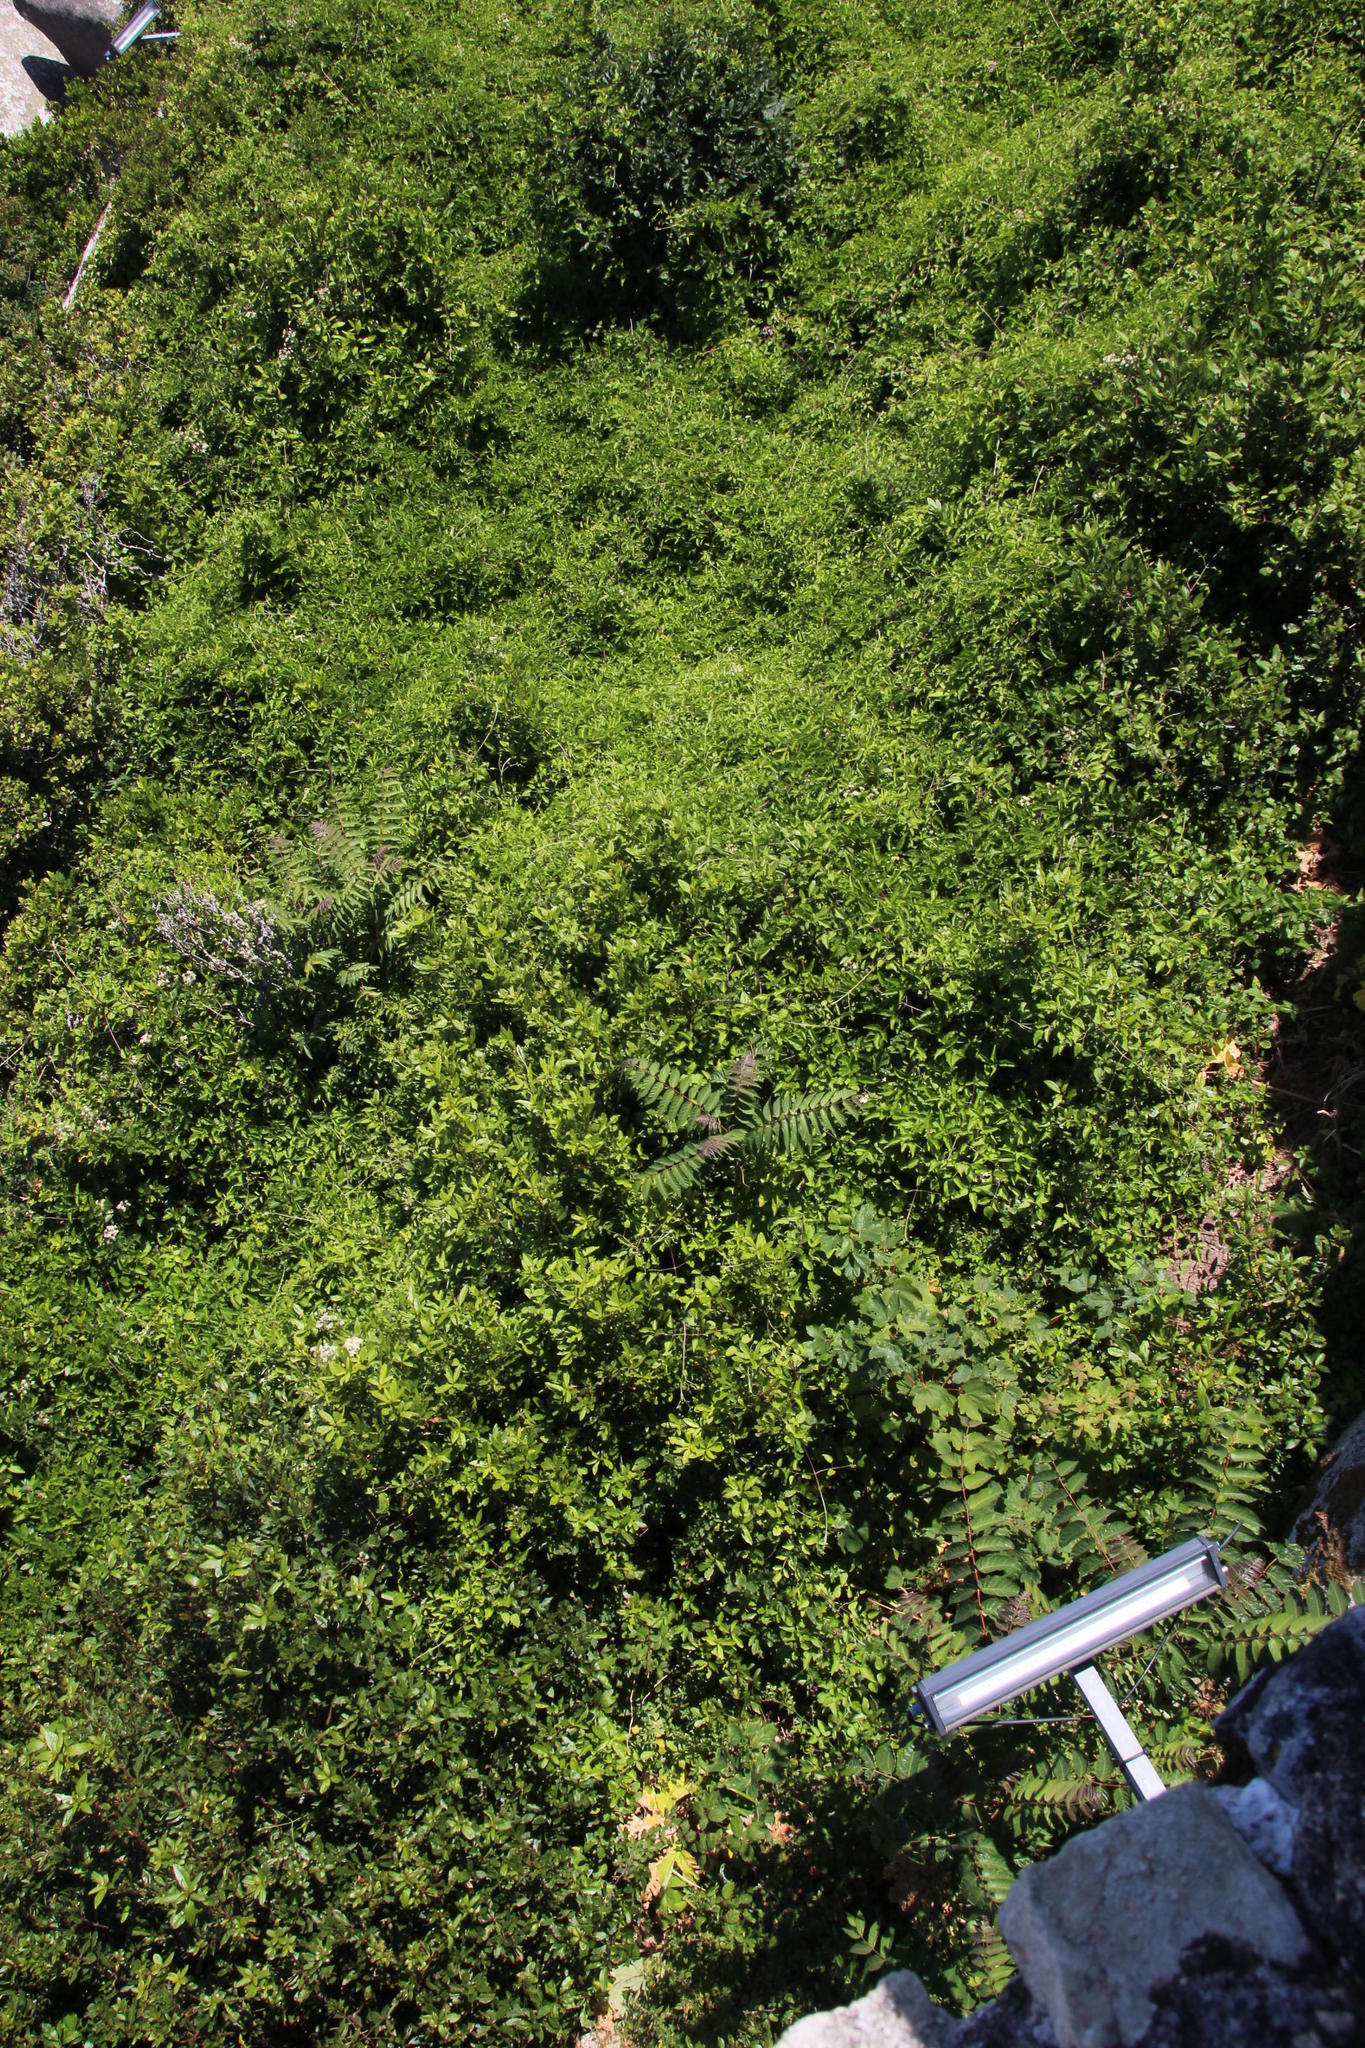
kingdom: Plantae
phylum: Tracheophyta
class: Magnoliopsida
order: Sapindales
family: Simaroubaceae
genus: Ailanthus
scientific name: Ailanthus altissima
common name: Tree-of-heaven
